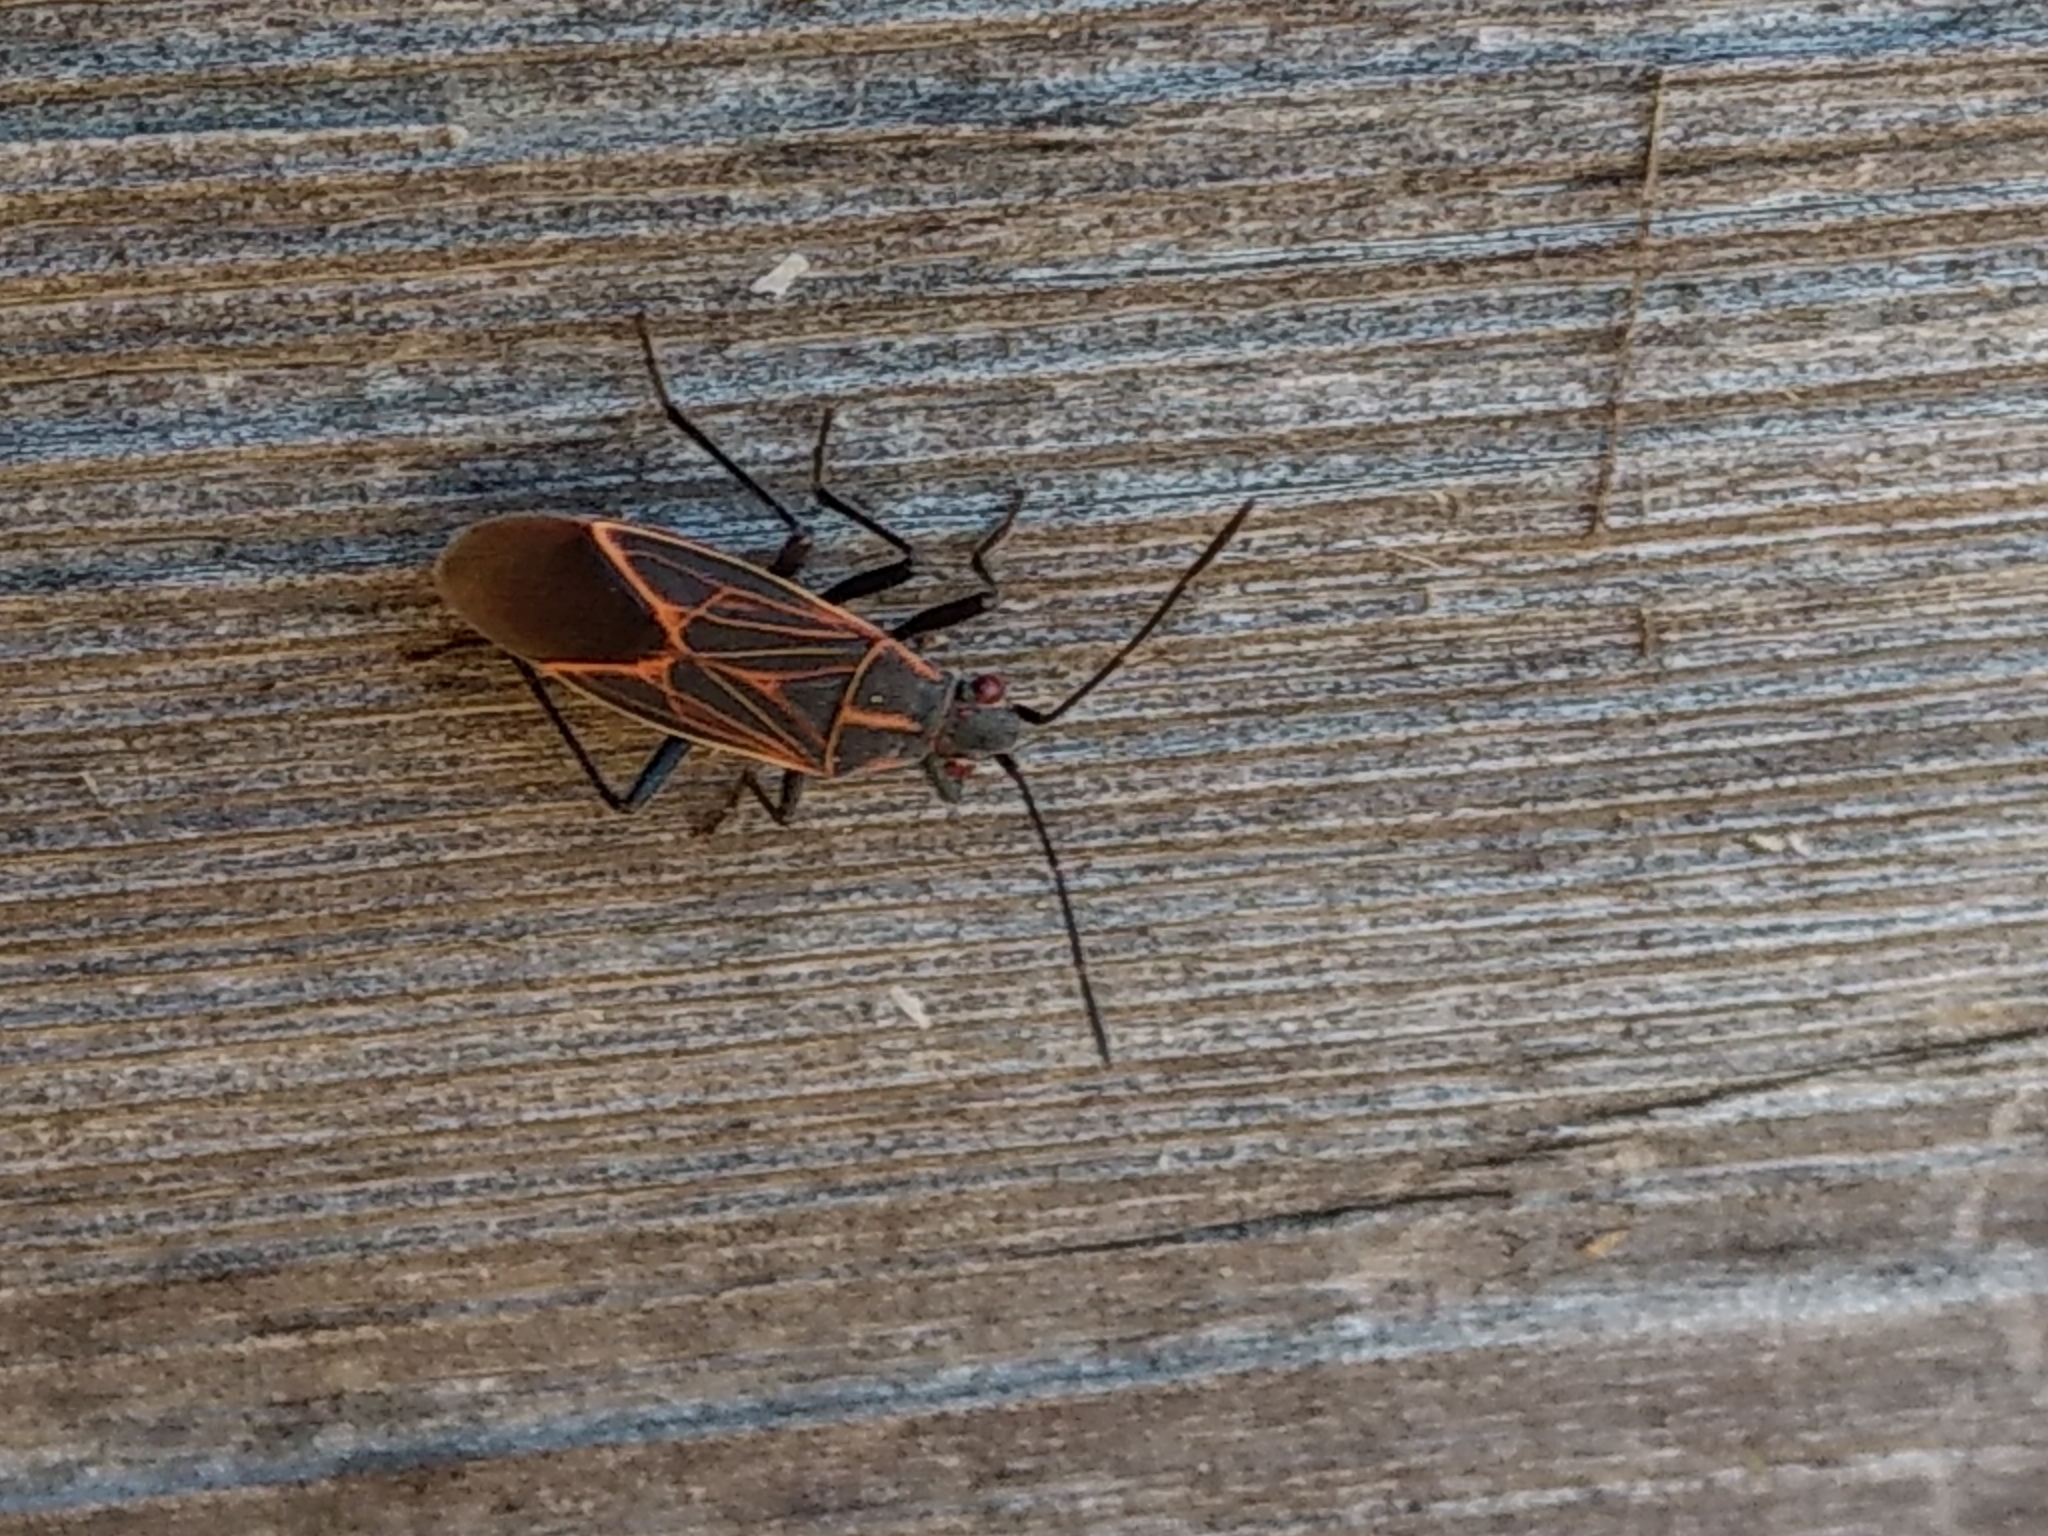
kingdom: Animalia
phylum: Arthropoda
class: Insecta
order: Hemiptera
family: Rhopalidae
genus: Boisea
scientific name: Boisea rubrolineata
